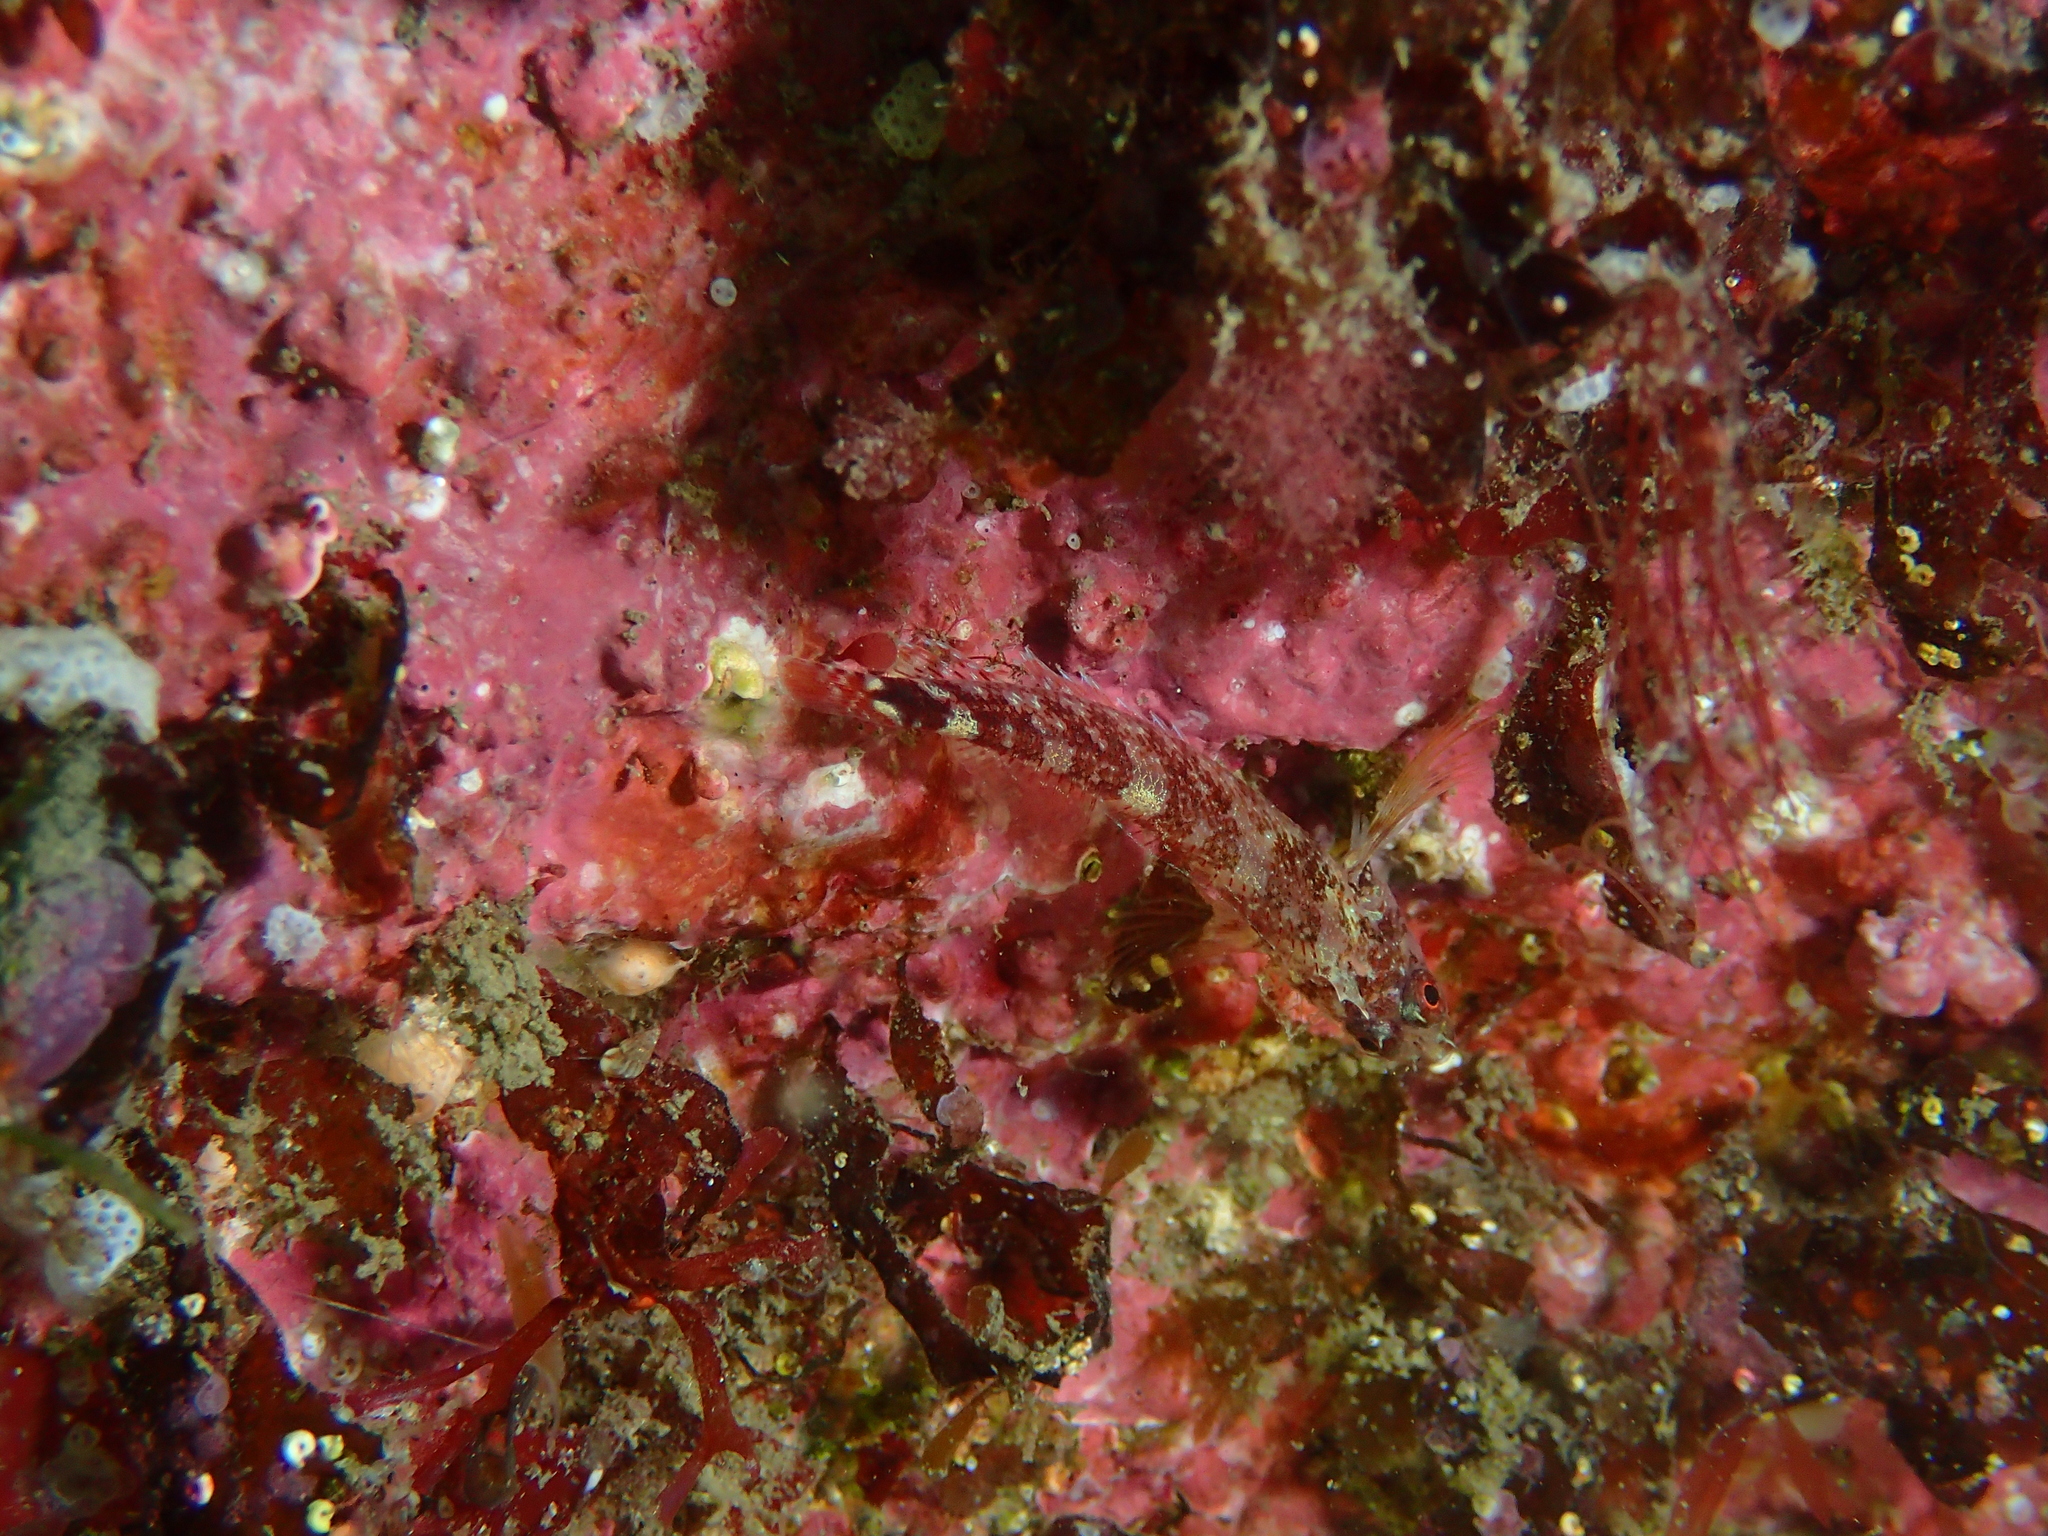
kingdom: Animalia
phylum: Chordata
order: Perciformes
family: Tripterygiidae
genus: Tripterygion
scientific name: Tripterygion delaisi
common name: Black-face blenny
